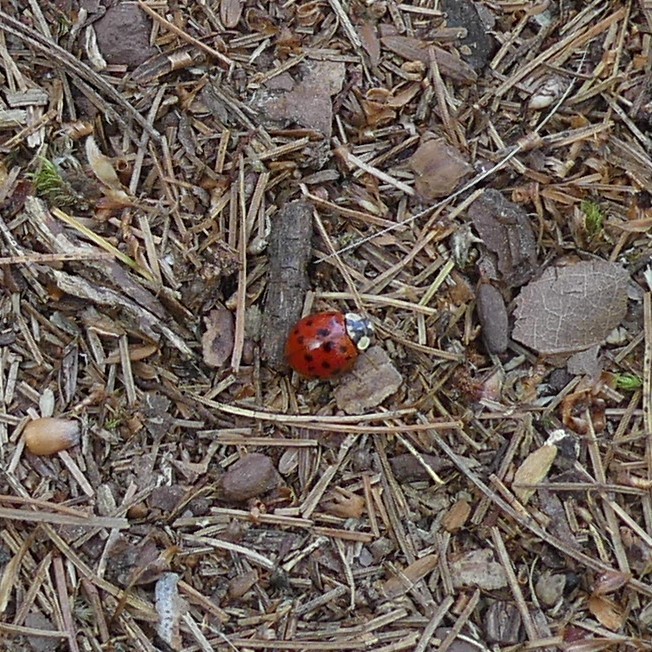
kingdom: Animalia
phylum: Arthropoda
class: Insecta
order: Coleoptera
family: Coccinellidae
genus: Harmonia
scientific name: Harmonia axyridis
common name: Harlequin ladybird
